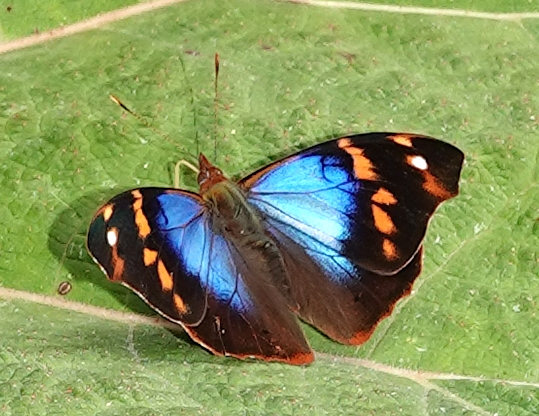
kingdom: Animalia
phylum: Arthropoda
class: Insecta
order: Lepidoptera
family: Nymphalidae
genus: Epiphile
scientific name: Epiphile epimenes
